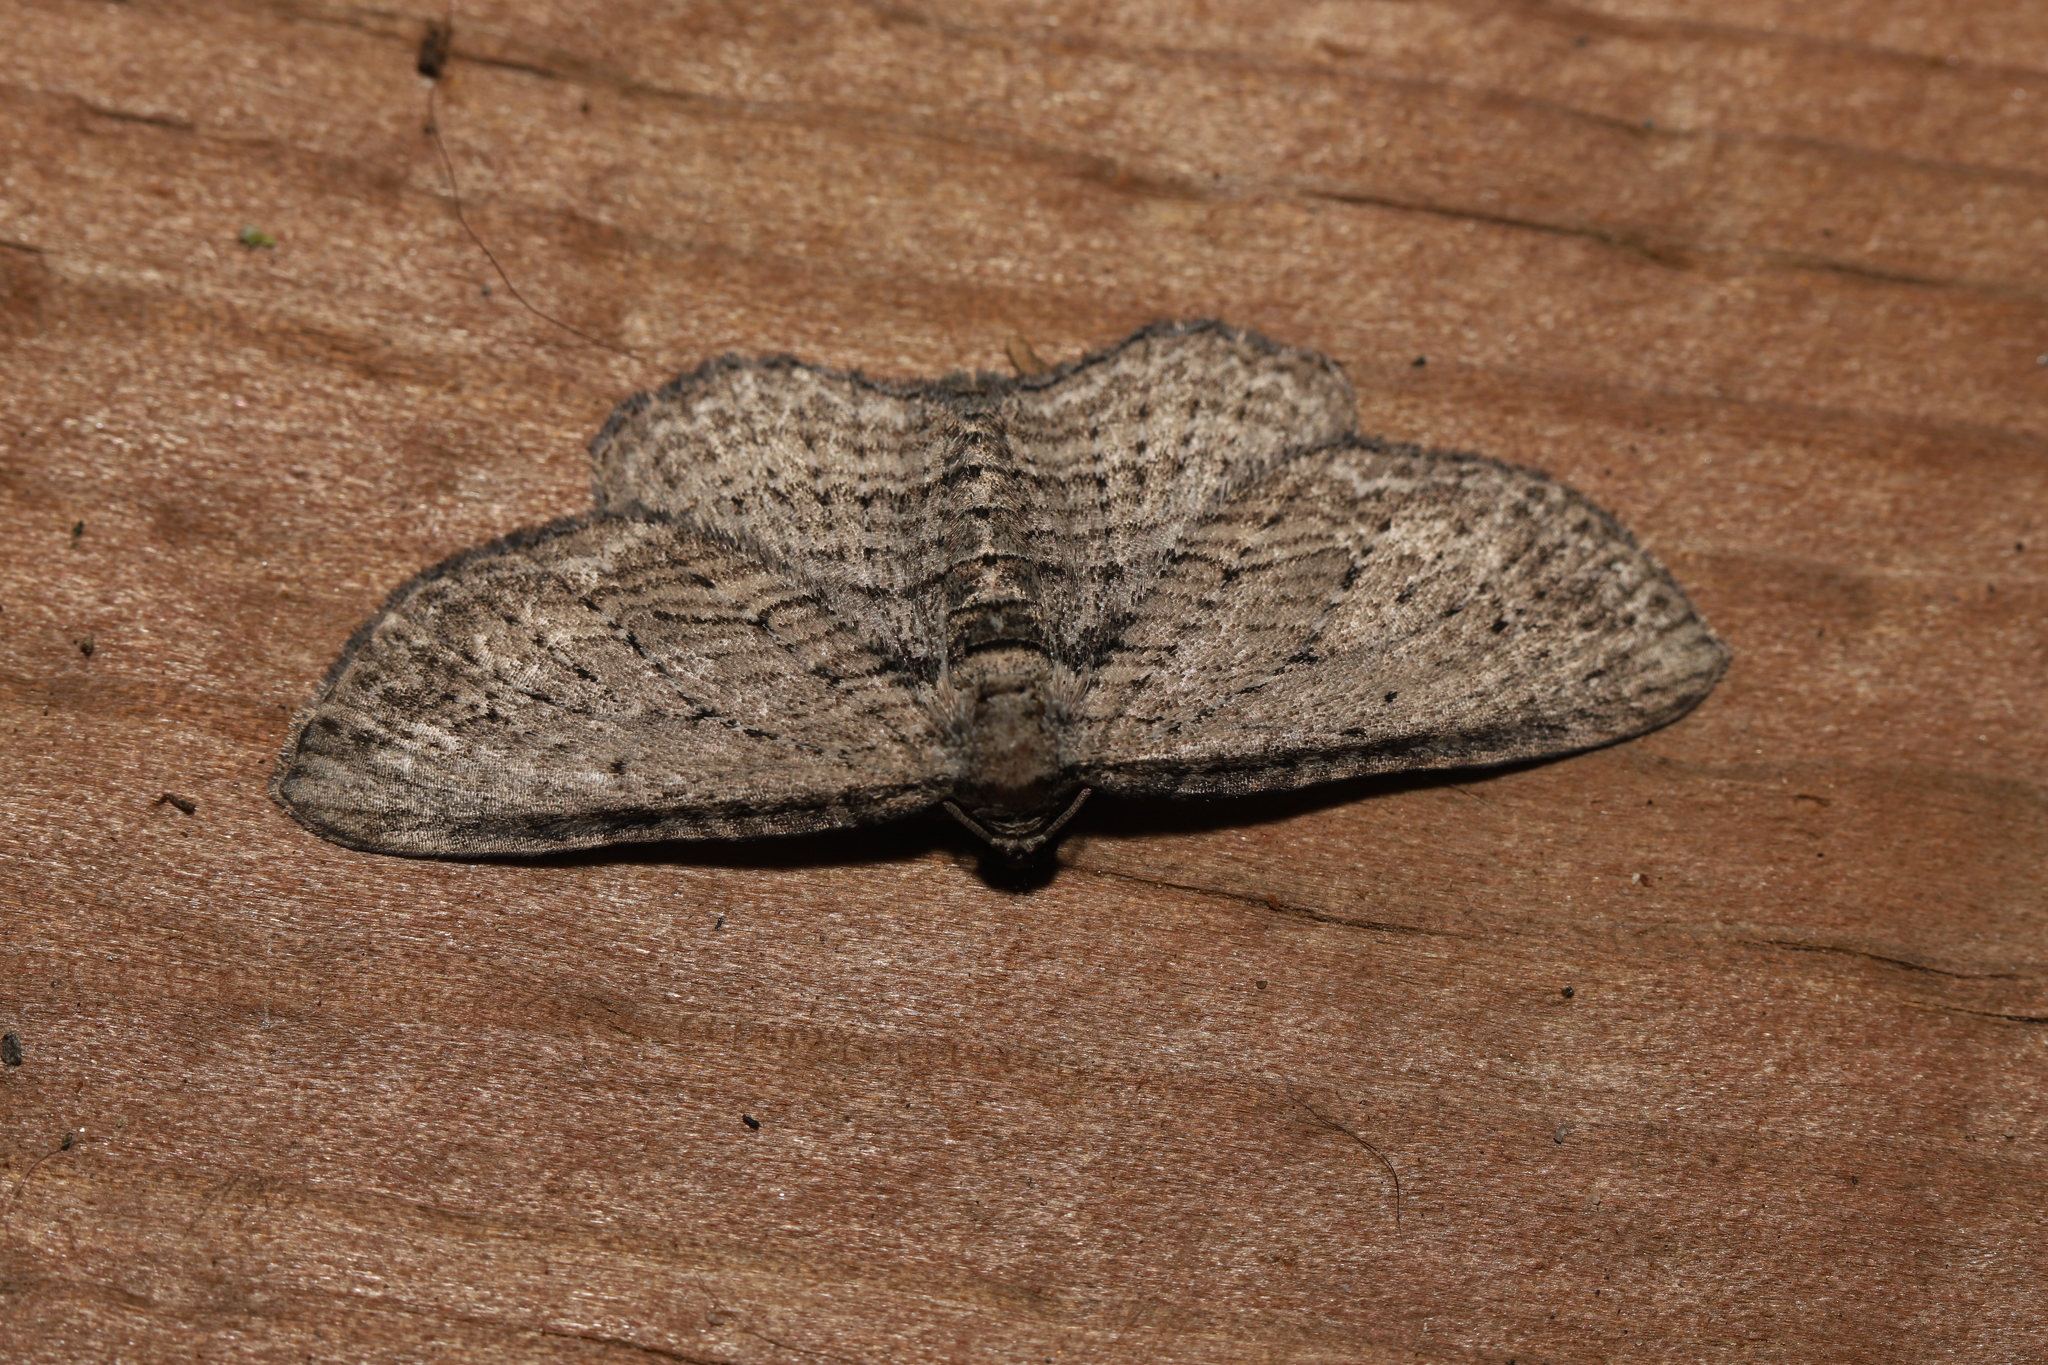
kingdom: Animalia
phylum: Arthropoda
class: Insecta
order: Lepidoptera
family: Geometridae
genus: Horisme
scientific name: Horisme intestinata
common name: Brown bark carpet
